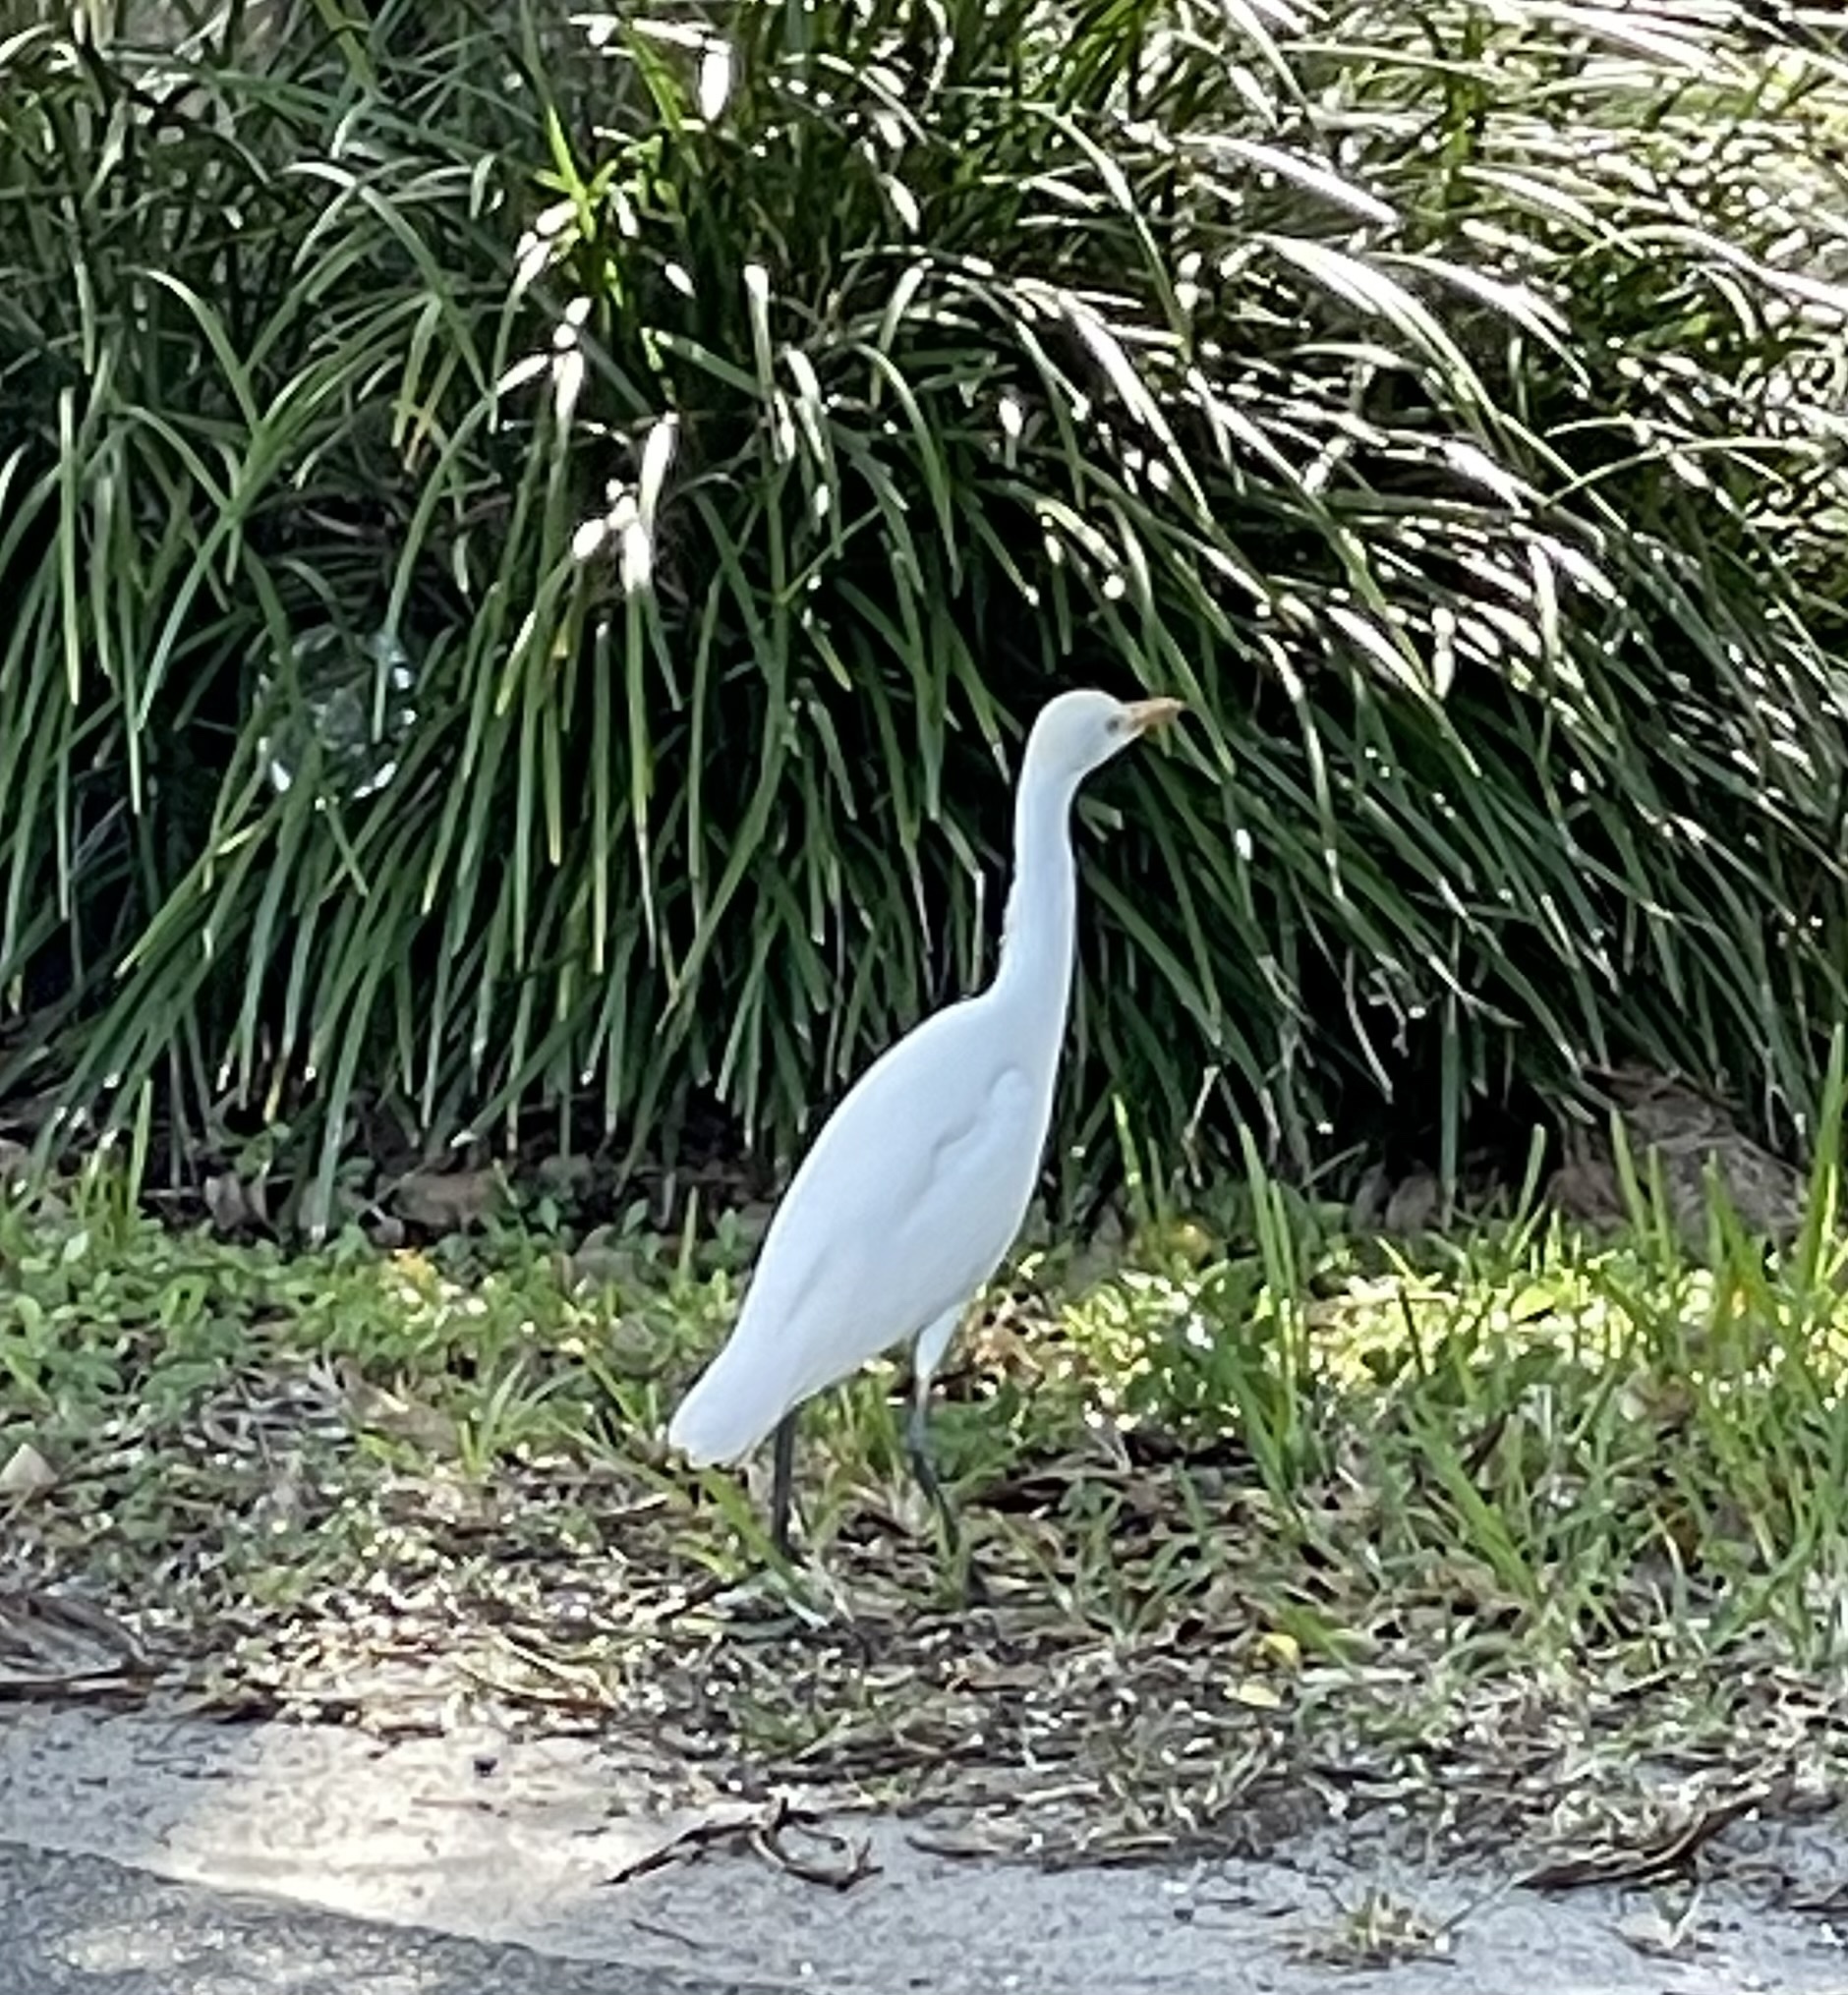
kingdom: Animalia
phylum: Chordata
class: Aves
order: Pelecaniformes
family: Ardeidae
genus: Bubulcus
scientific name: Bubulcus ibis
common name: Cattle egret
